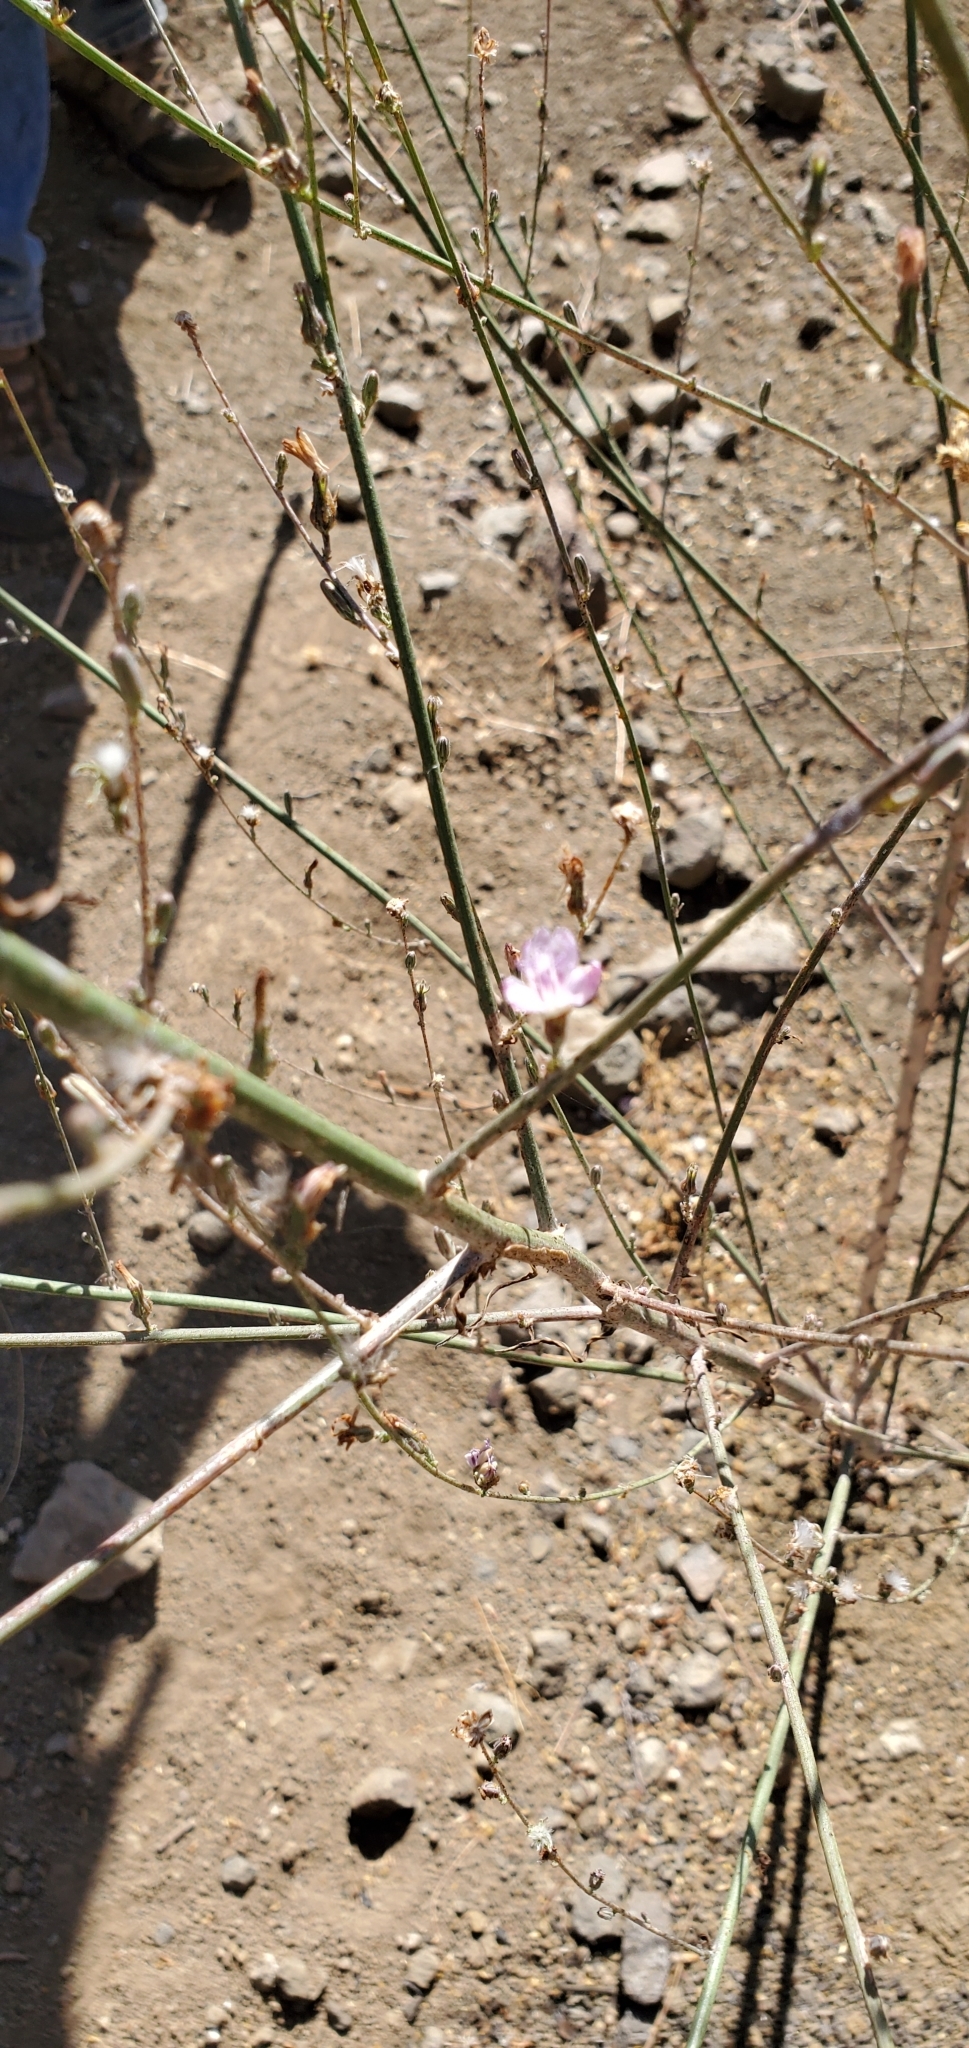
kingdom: Plantae
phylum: Tracheophyta
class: Magnoliopsida
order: Asterales
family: Asteraceae
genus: Stephanomeria
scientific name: Stephanomeria diegensis
